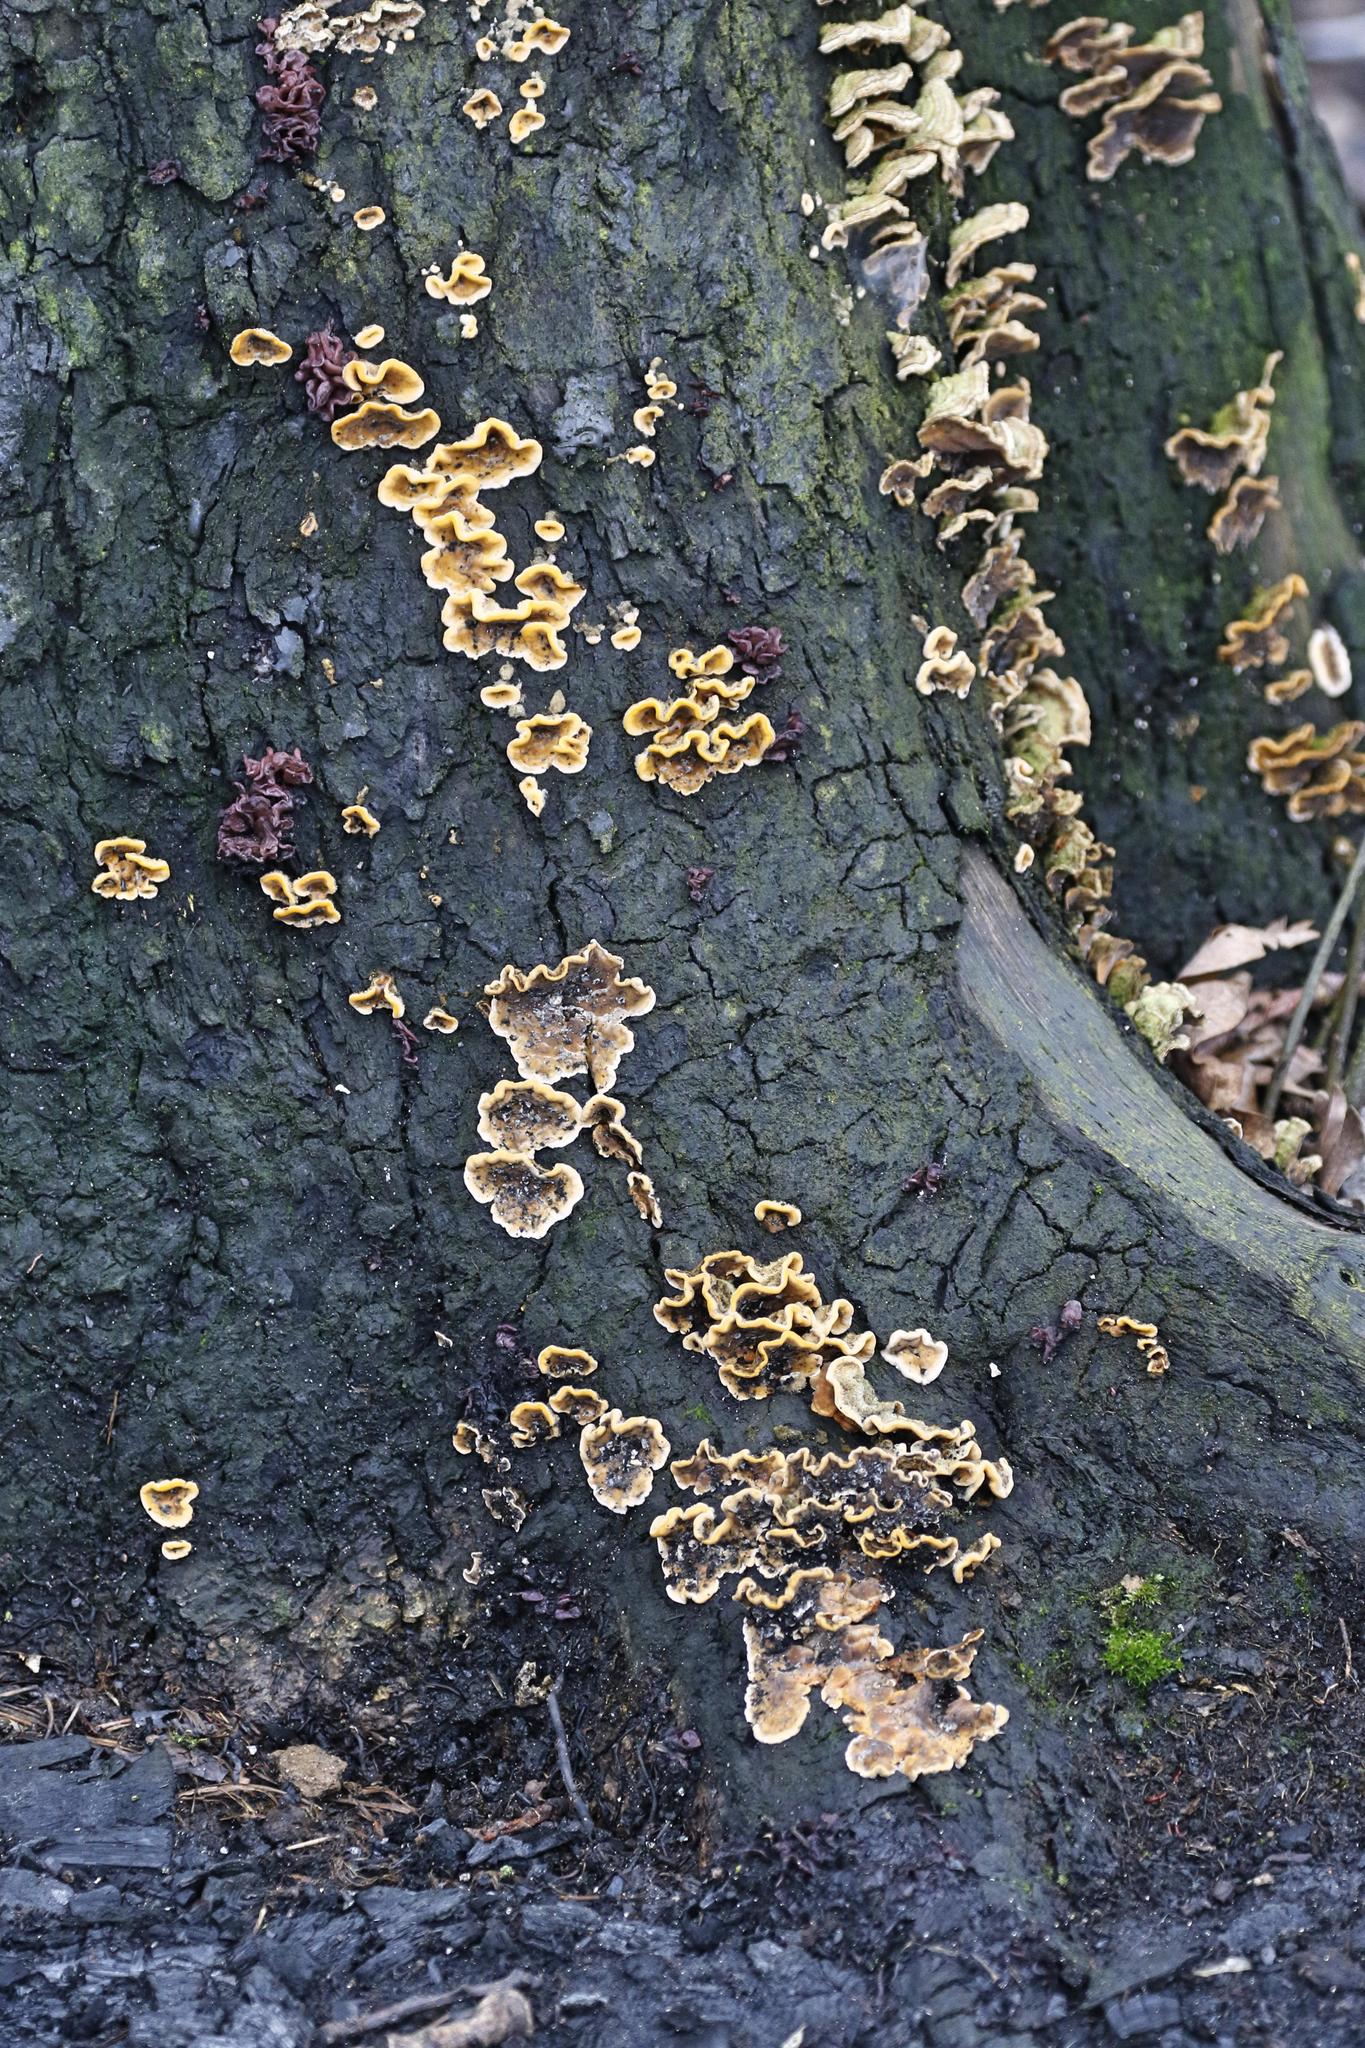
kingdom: Fungi
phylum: Basidiomycota
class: Agaricomycetes
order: Russulales
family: Stereaceae
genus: Stereum
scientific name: Stereum hirsutum
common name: Hairy curtain crust
